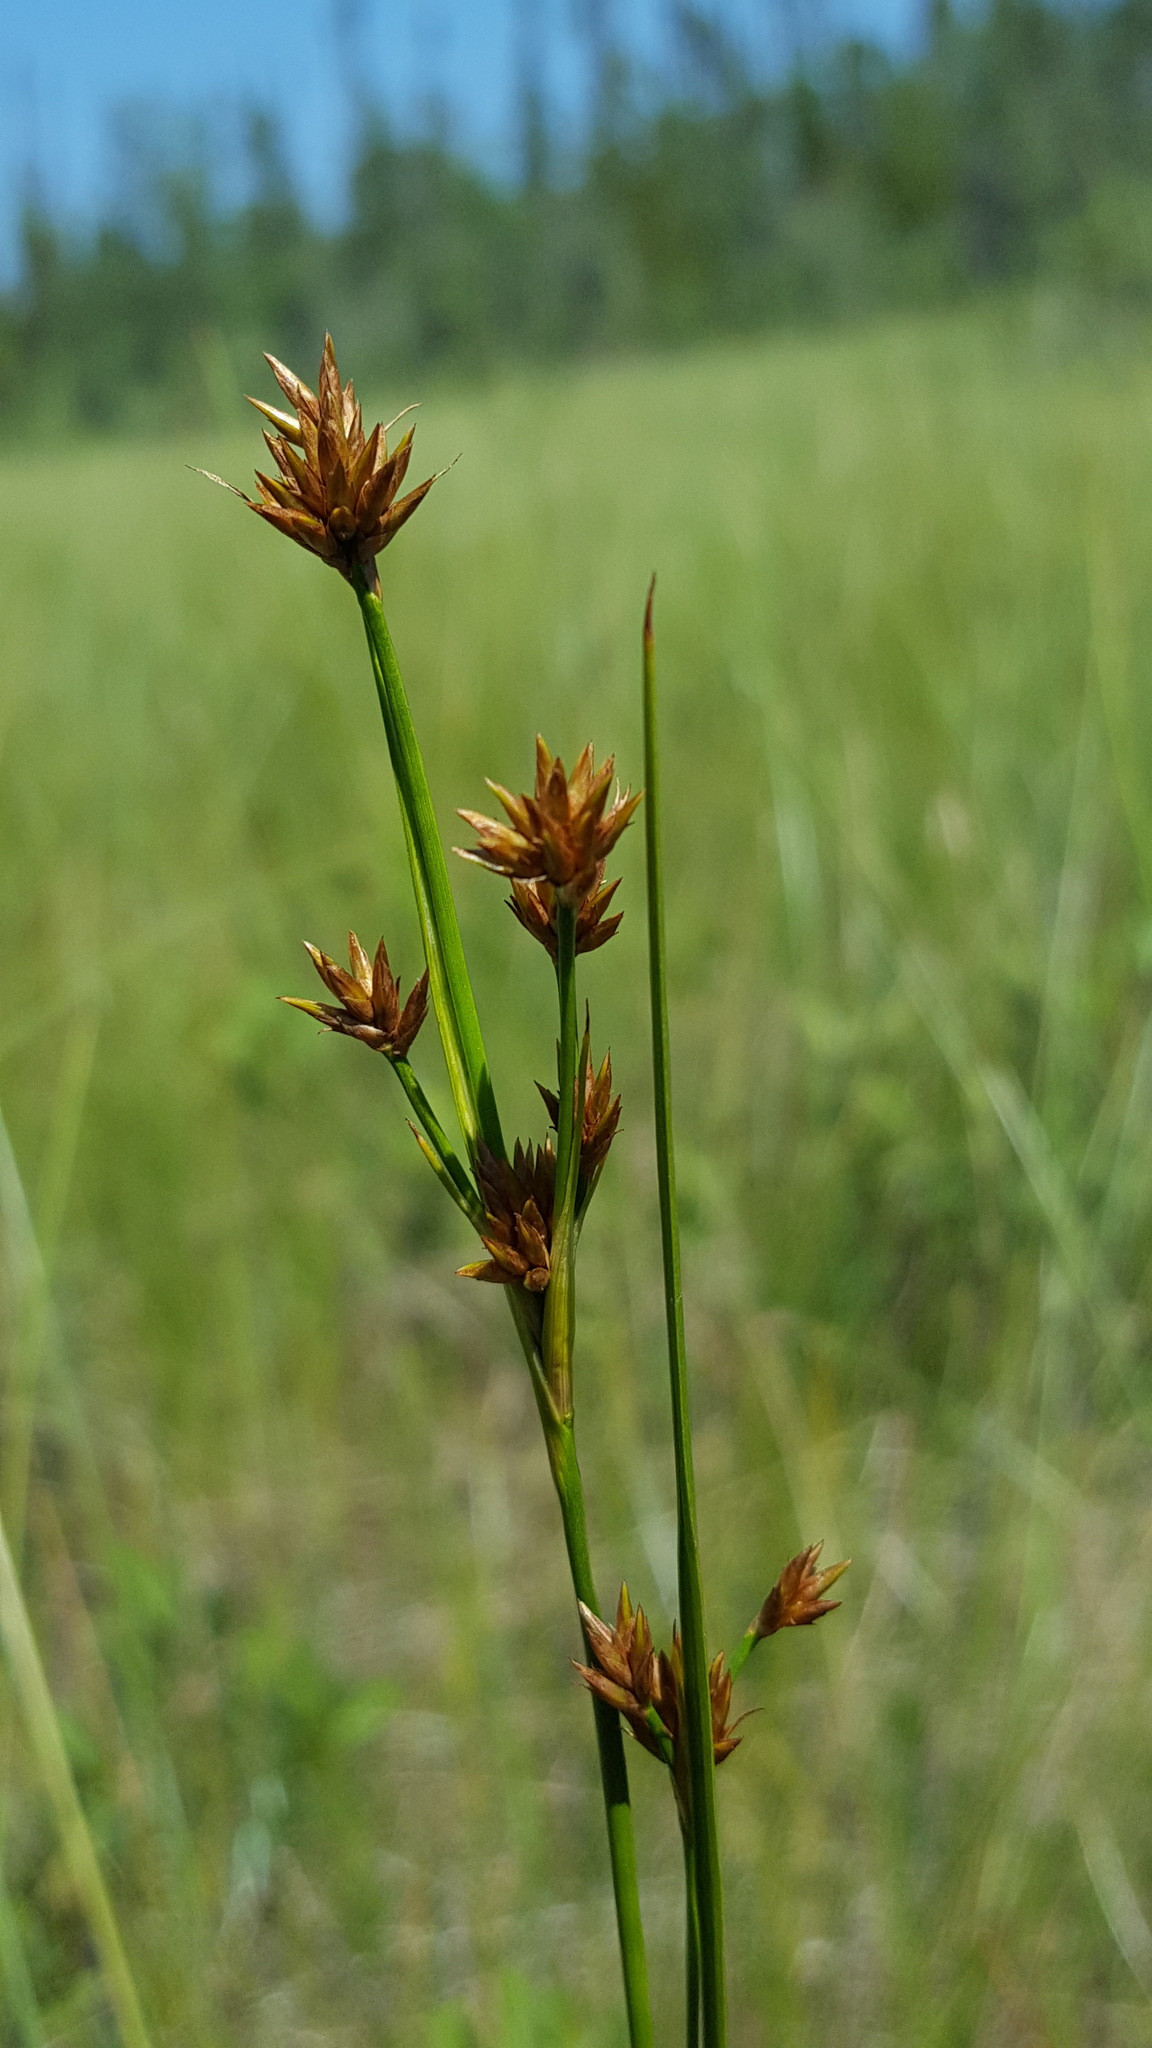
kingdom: Plantae
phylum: Tracheophyta
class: Liliopsida
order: Poales
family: Cyperaceae
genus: Cladium
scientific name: Cladium mariscoides
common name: Smooth sawgrass
